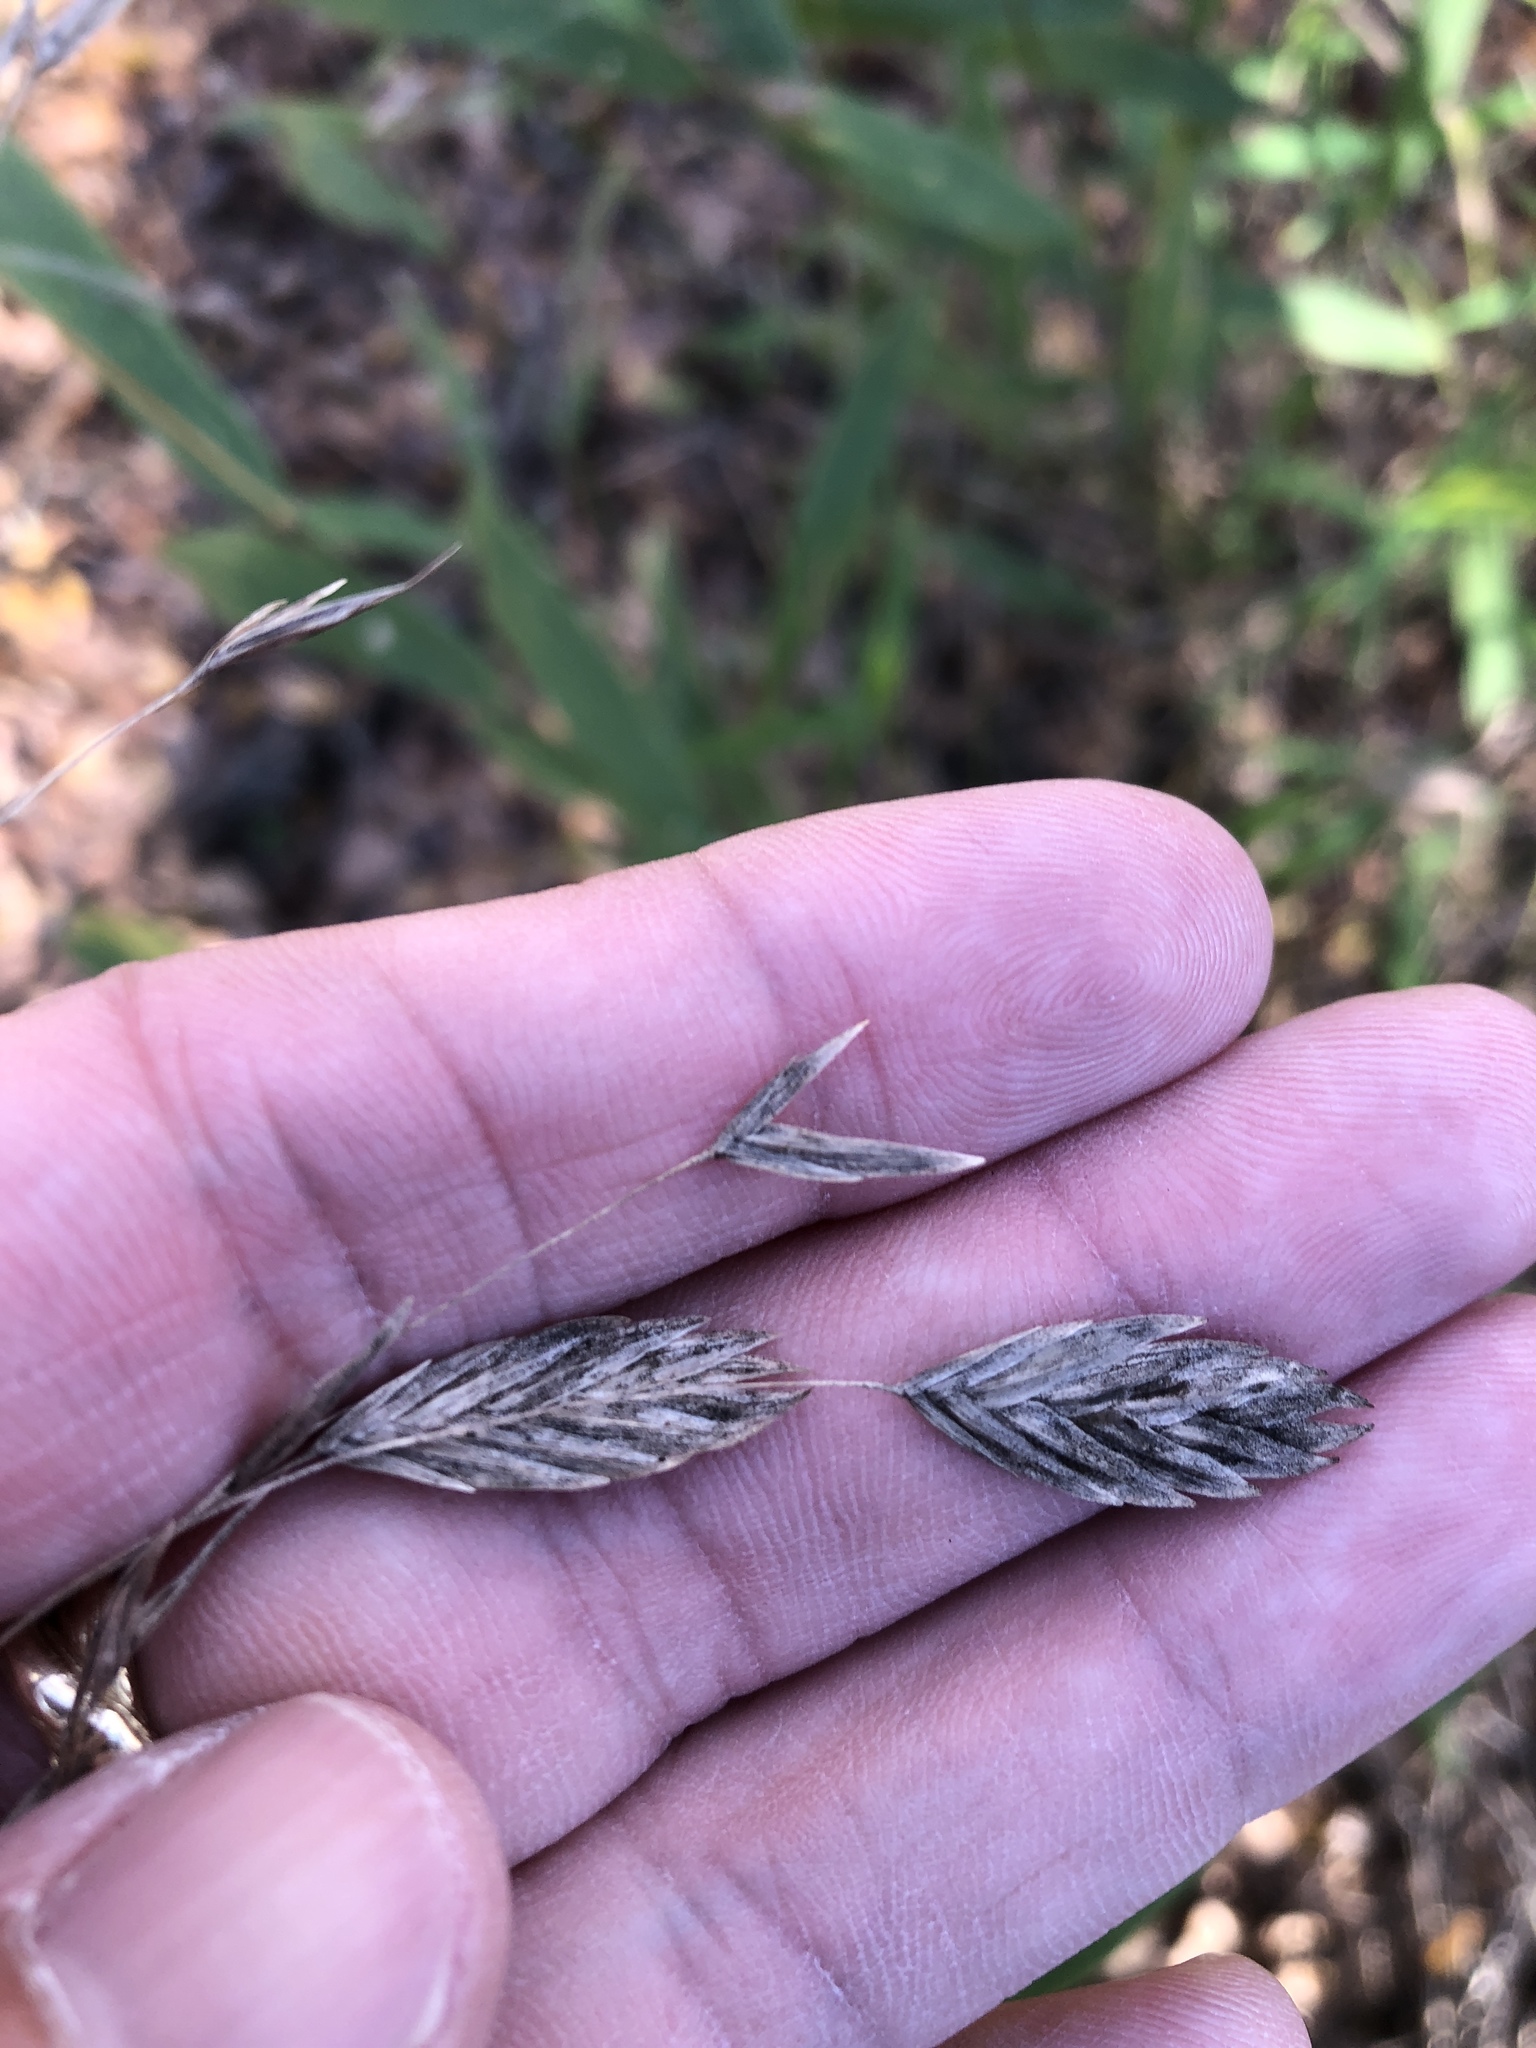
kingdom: Plantae
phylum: Tracheophyta
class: Liliopsida
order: Poales
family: Poaceae
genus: Chasmanthium
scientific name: Chasmanthium latifolium
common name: Broad-leaved chasmanthium
